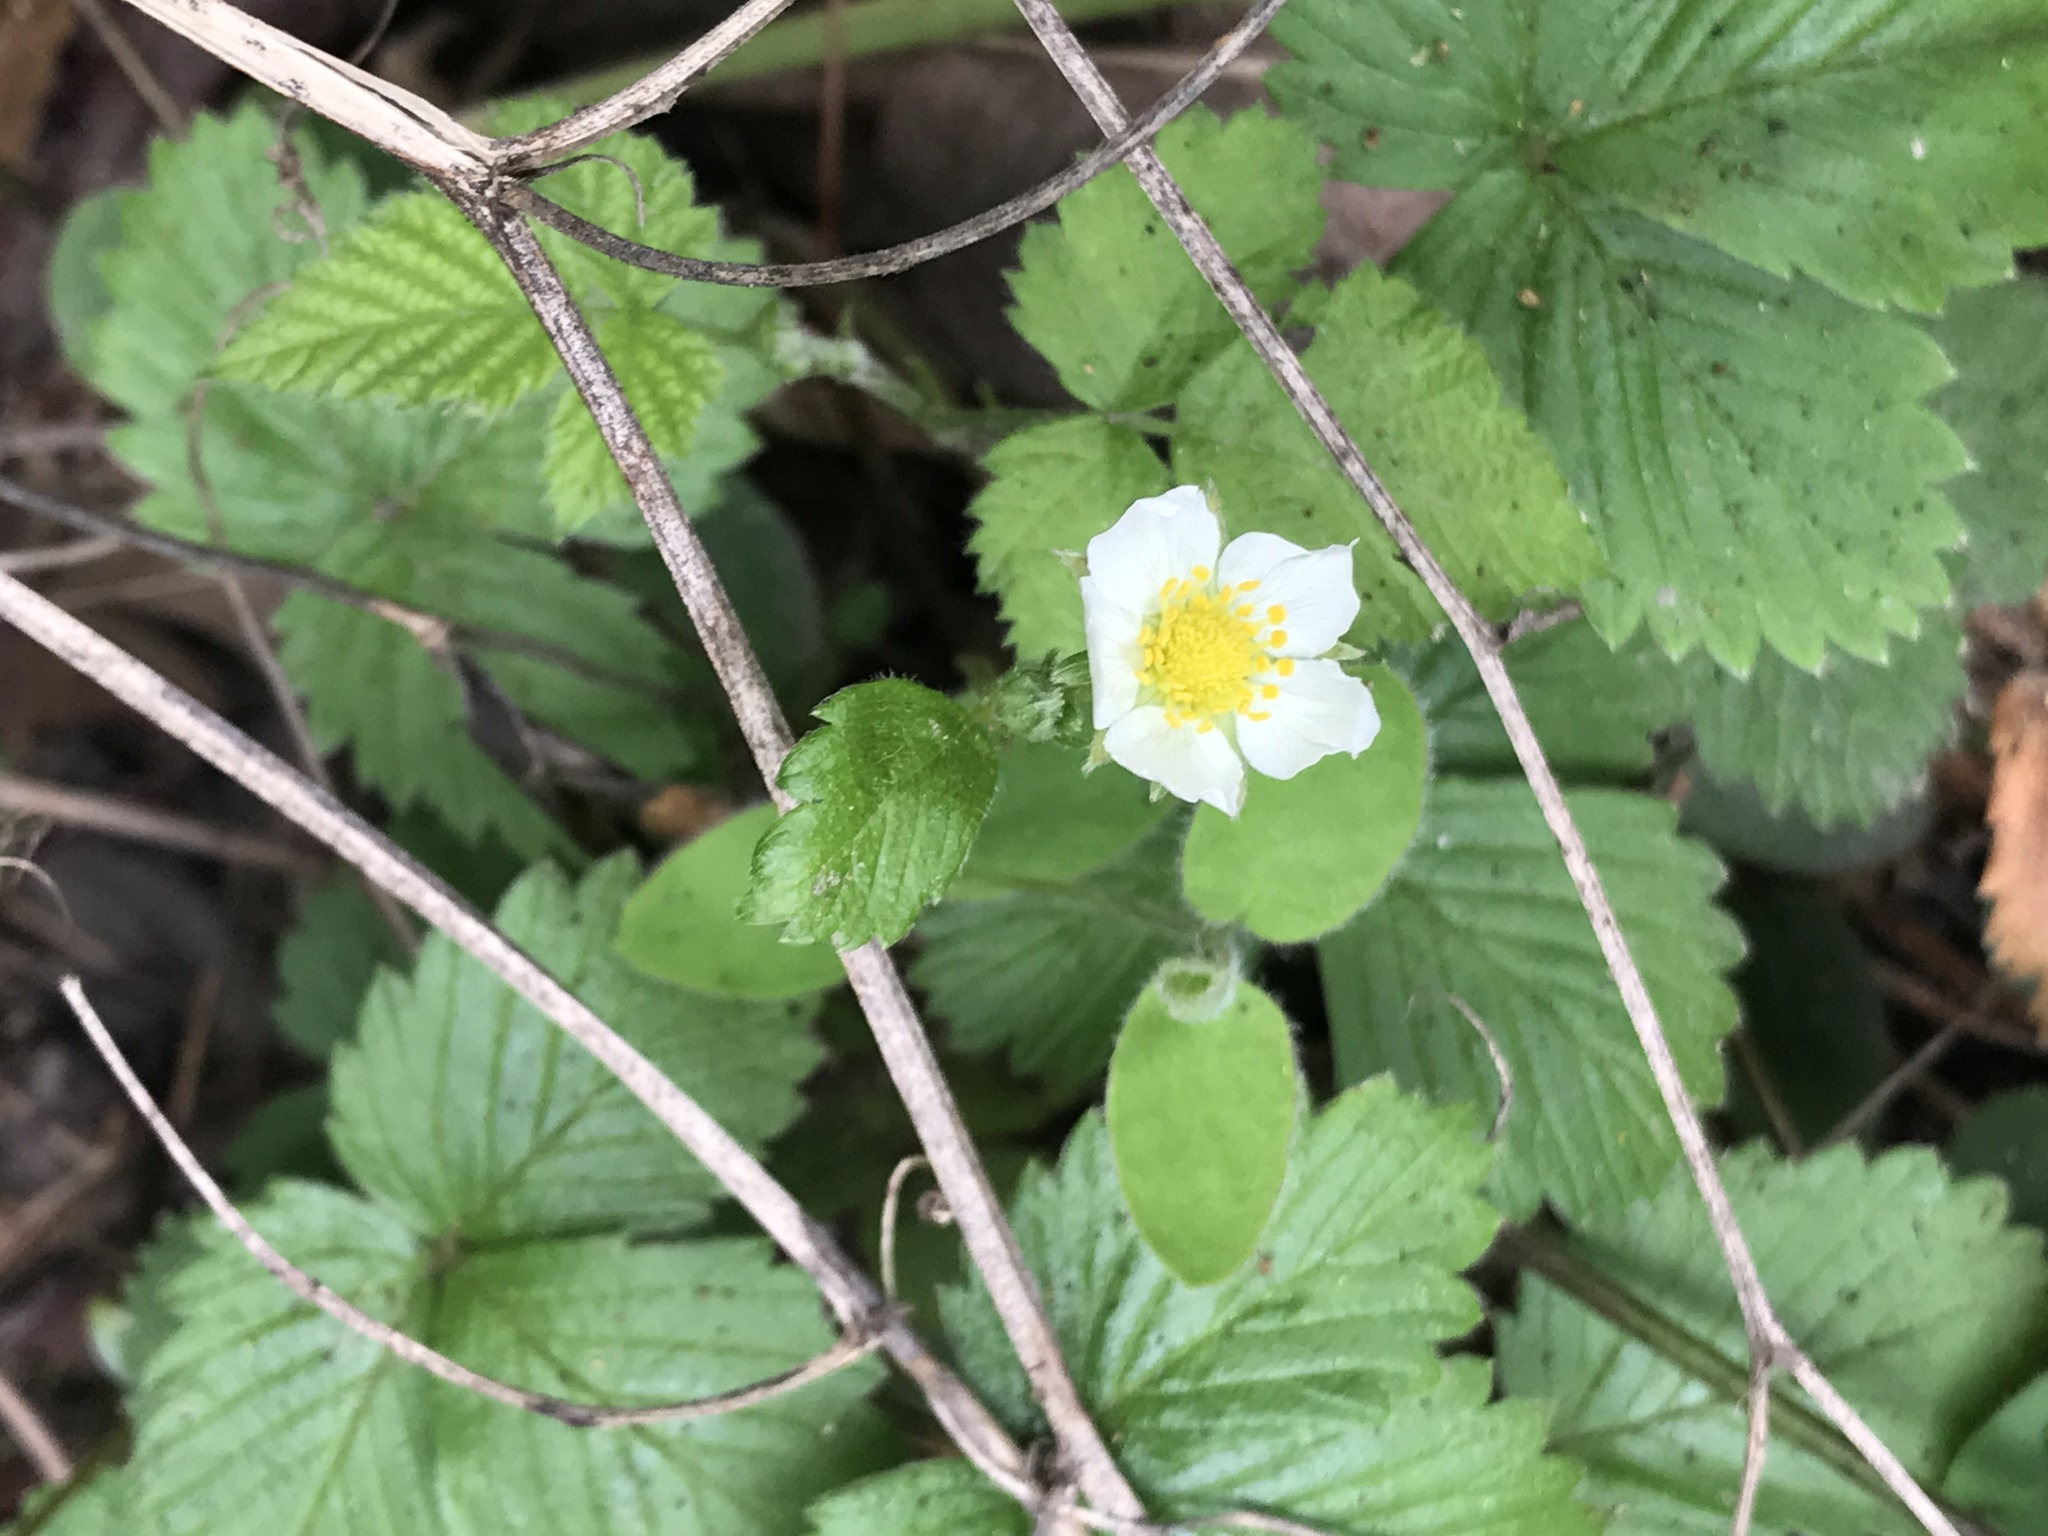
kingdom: Plantae
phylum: Tracheophyta
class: Magnoliopsida
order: Rosales
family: Rosaceae
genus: Fragaria
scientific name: Fragaria vesca
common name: Wild strawberry
